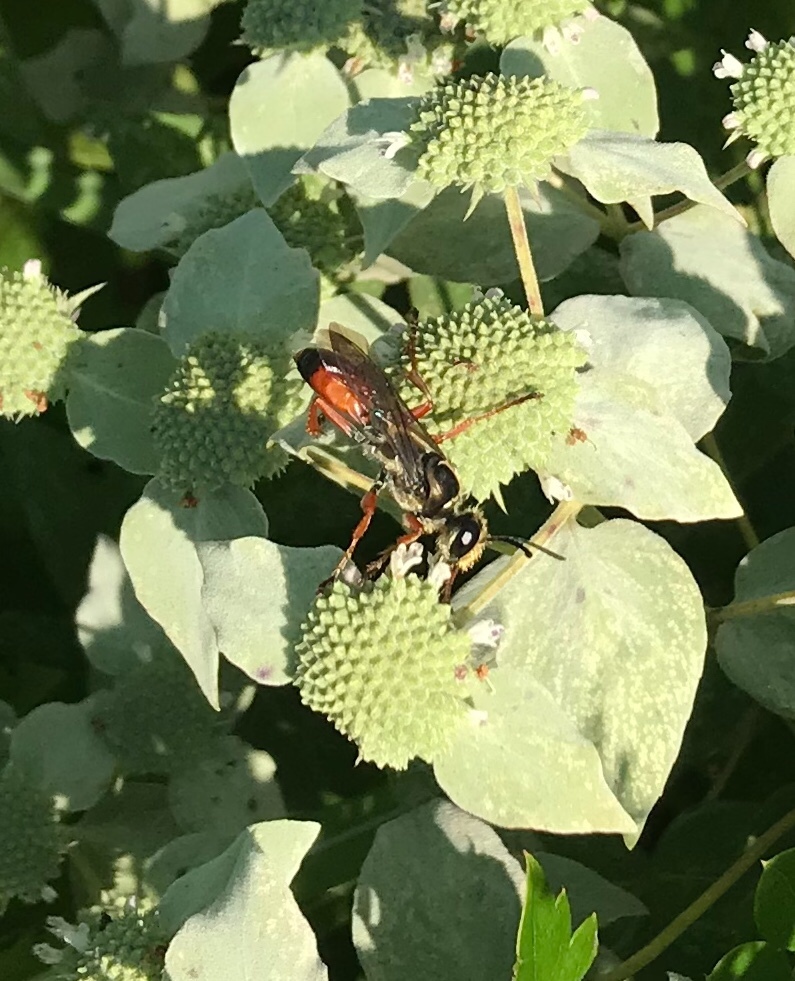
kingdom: Animalia
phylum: Arthropoda
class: Insecta
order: Hymenoptera
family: Sphecidae
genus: Sphex
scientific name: Sphex ichneumoneus
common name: Great golden digger wasp
